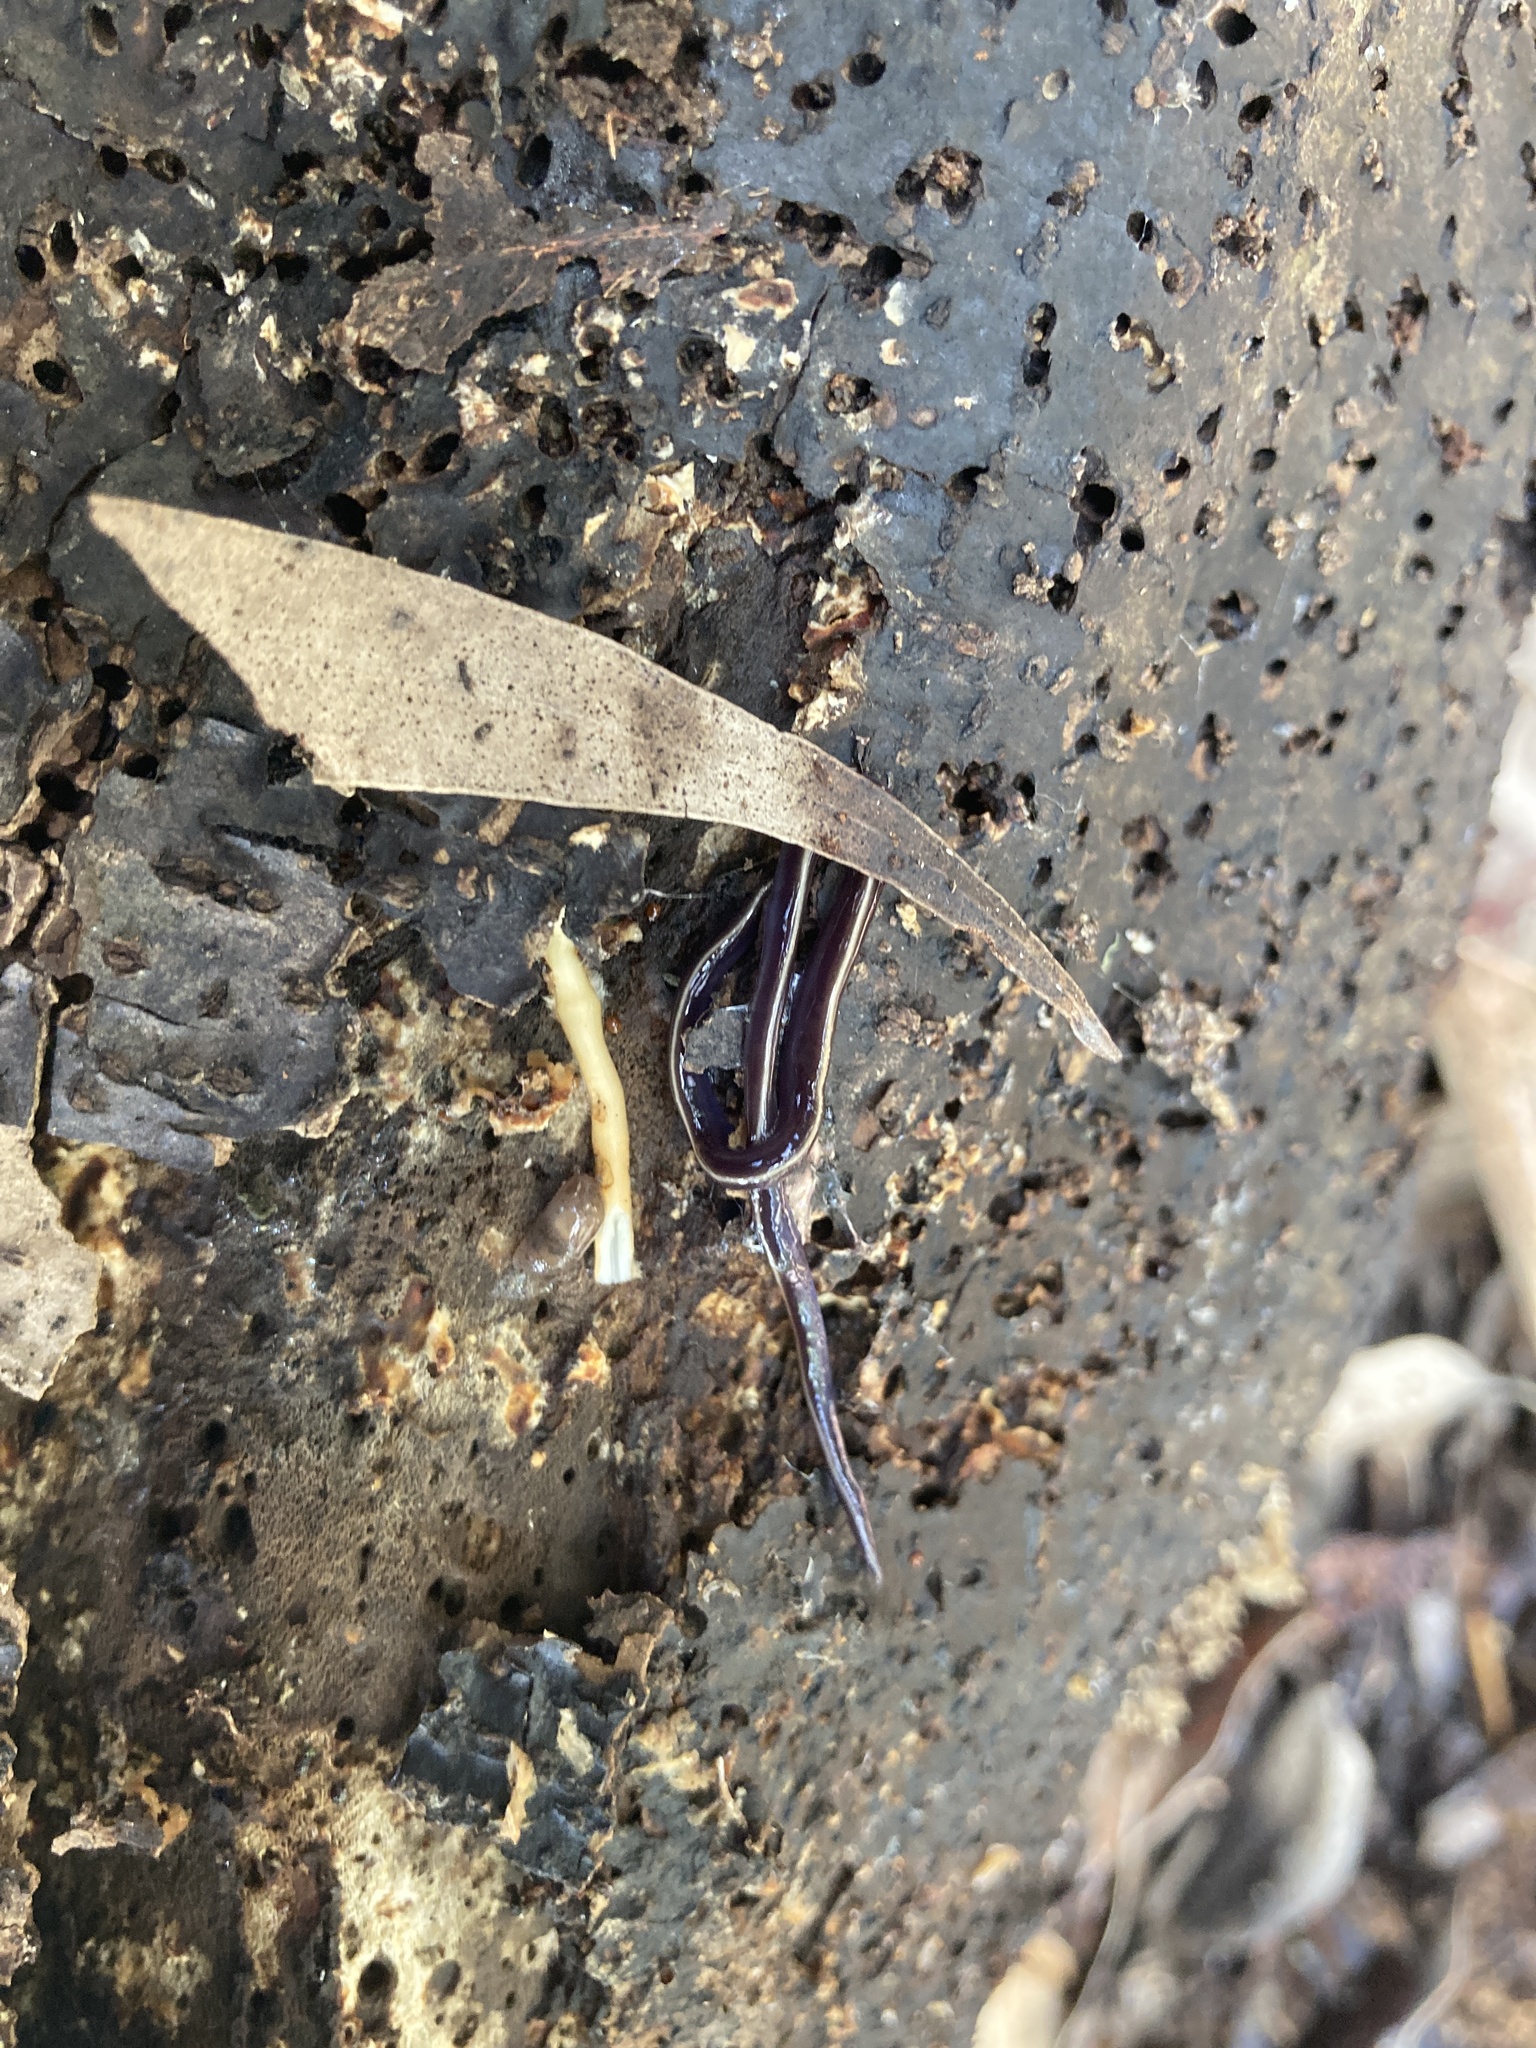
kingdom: Animalia
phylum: Platyhelminthes
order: Tricladida
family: Geoplanidae
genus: Caenoplana
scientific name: Caenoplana coerulea
